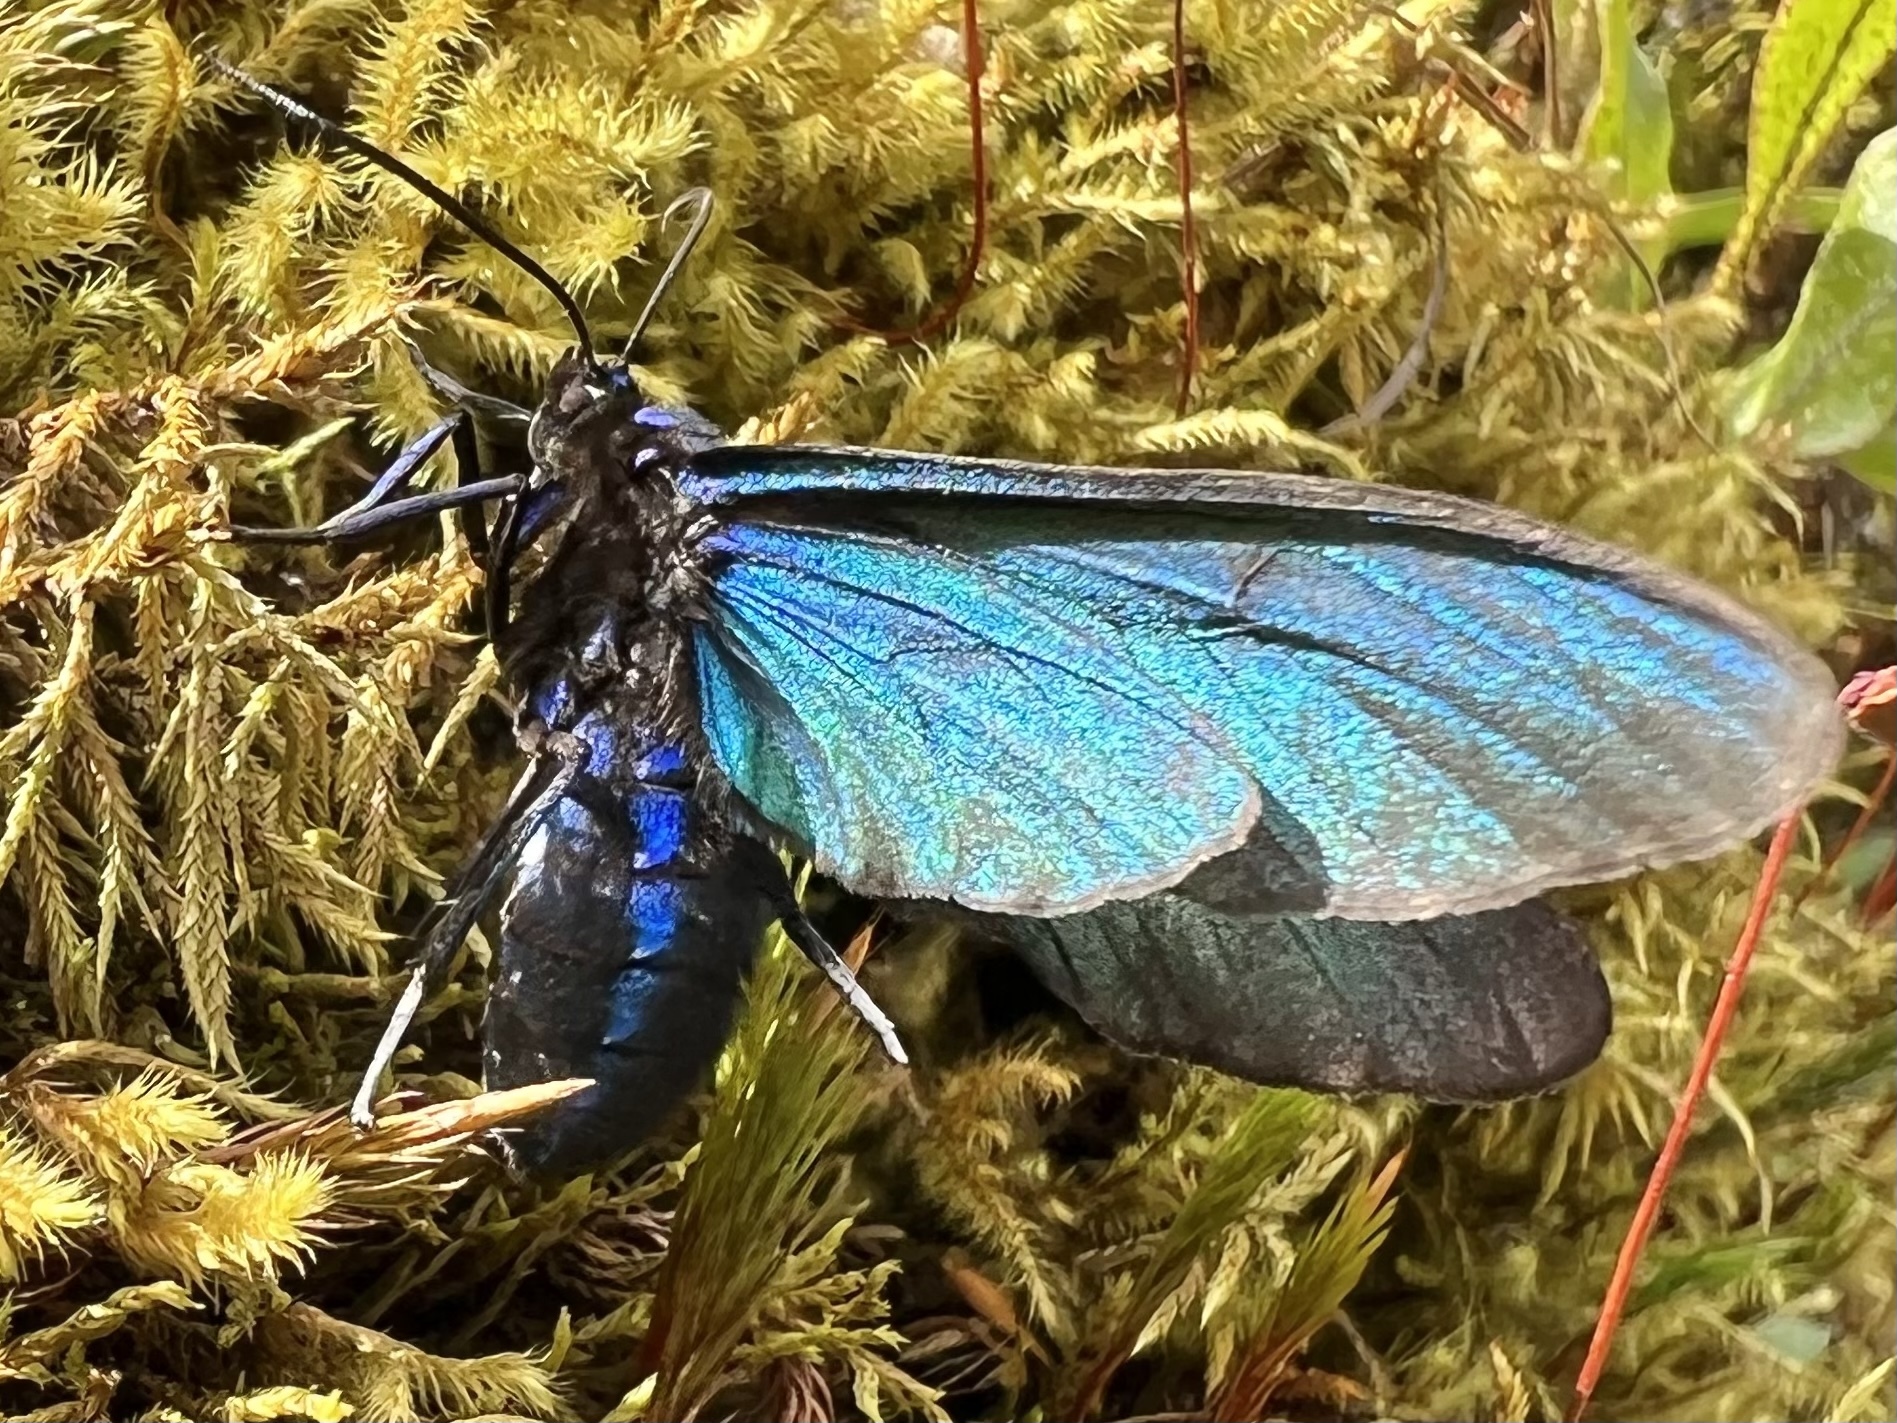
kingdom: Animalia
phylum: Arthropoda
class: Insecta
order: Lepidoptera
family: Erebidae
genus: Chrysocale
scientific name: Chrysocale gigas
